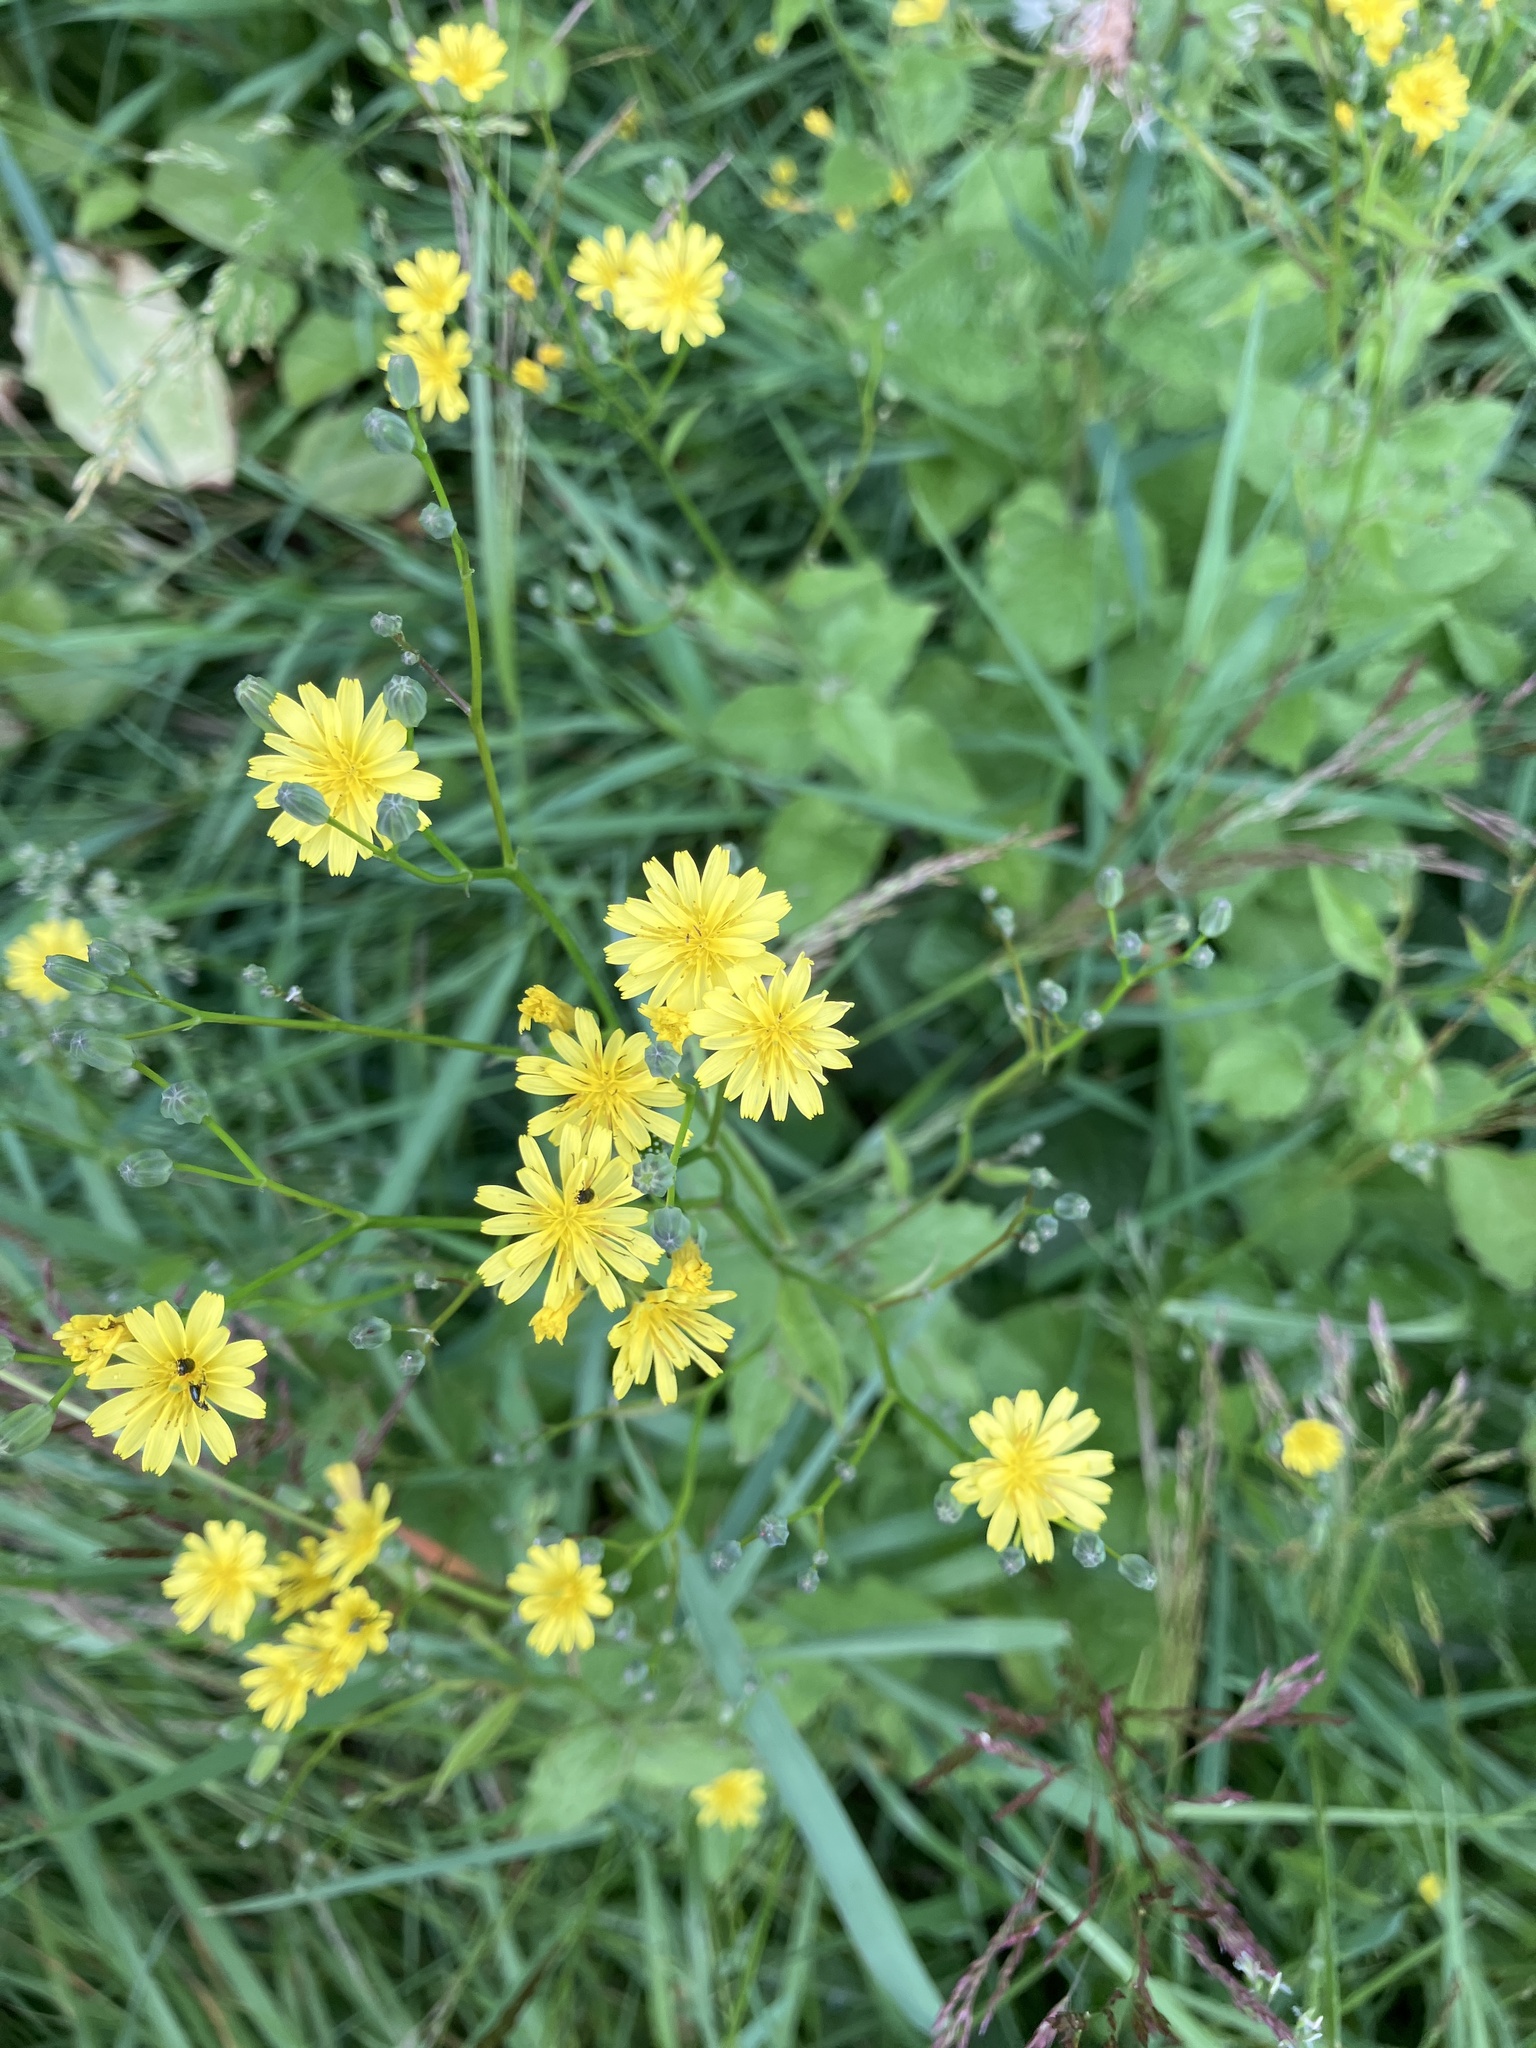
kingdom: Plantae
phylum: Tracheophyta
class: Magnoliopsida
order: Asterales
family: Asteraceae
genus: Lapsana
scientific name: Lapsana communis
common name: Nipplewort
